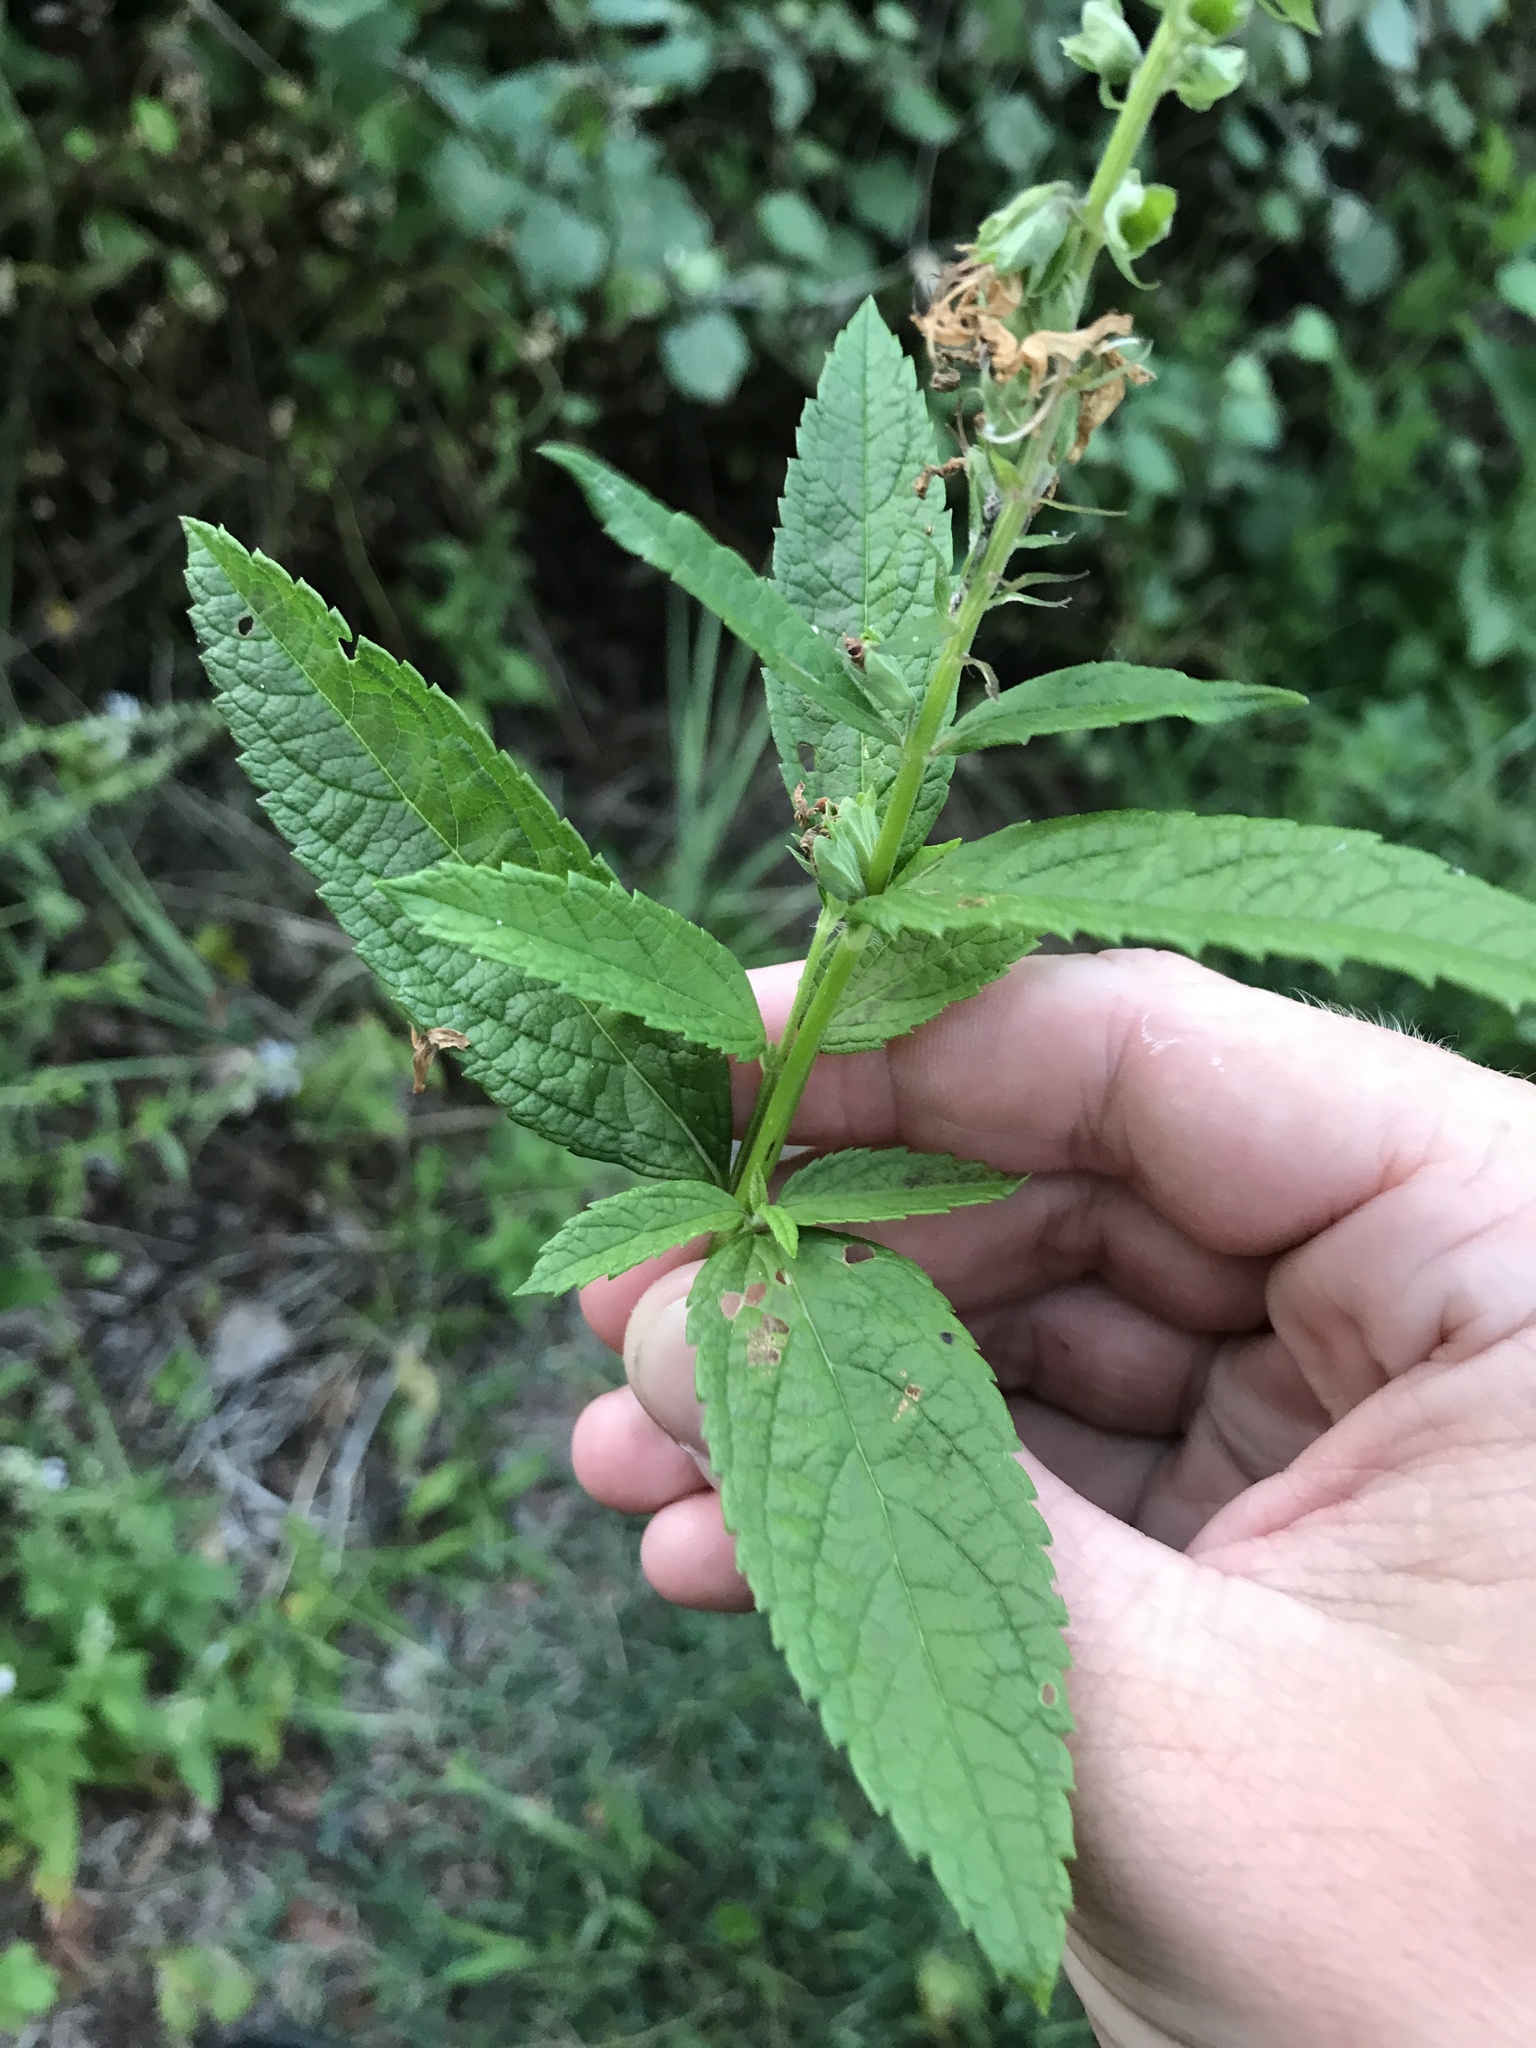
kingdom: Plantae
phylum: Tracheophyta
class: Magnoliopsida
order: Lamiales
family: Lamiaceae
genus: Teucrium
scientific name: Teucrium canadense
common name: American germander
